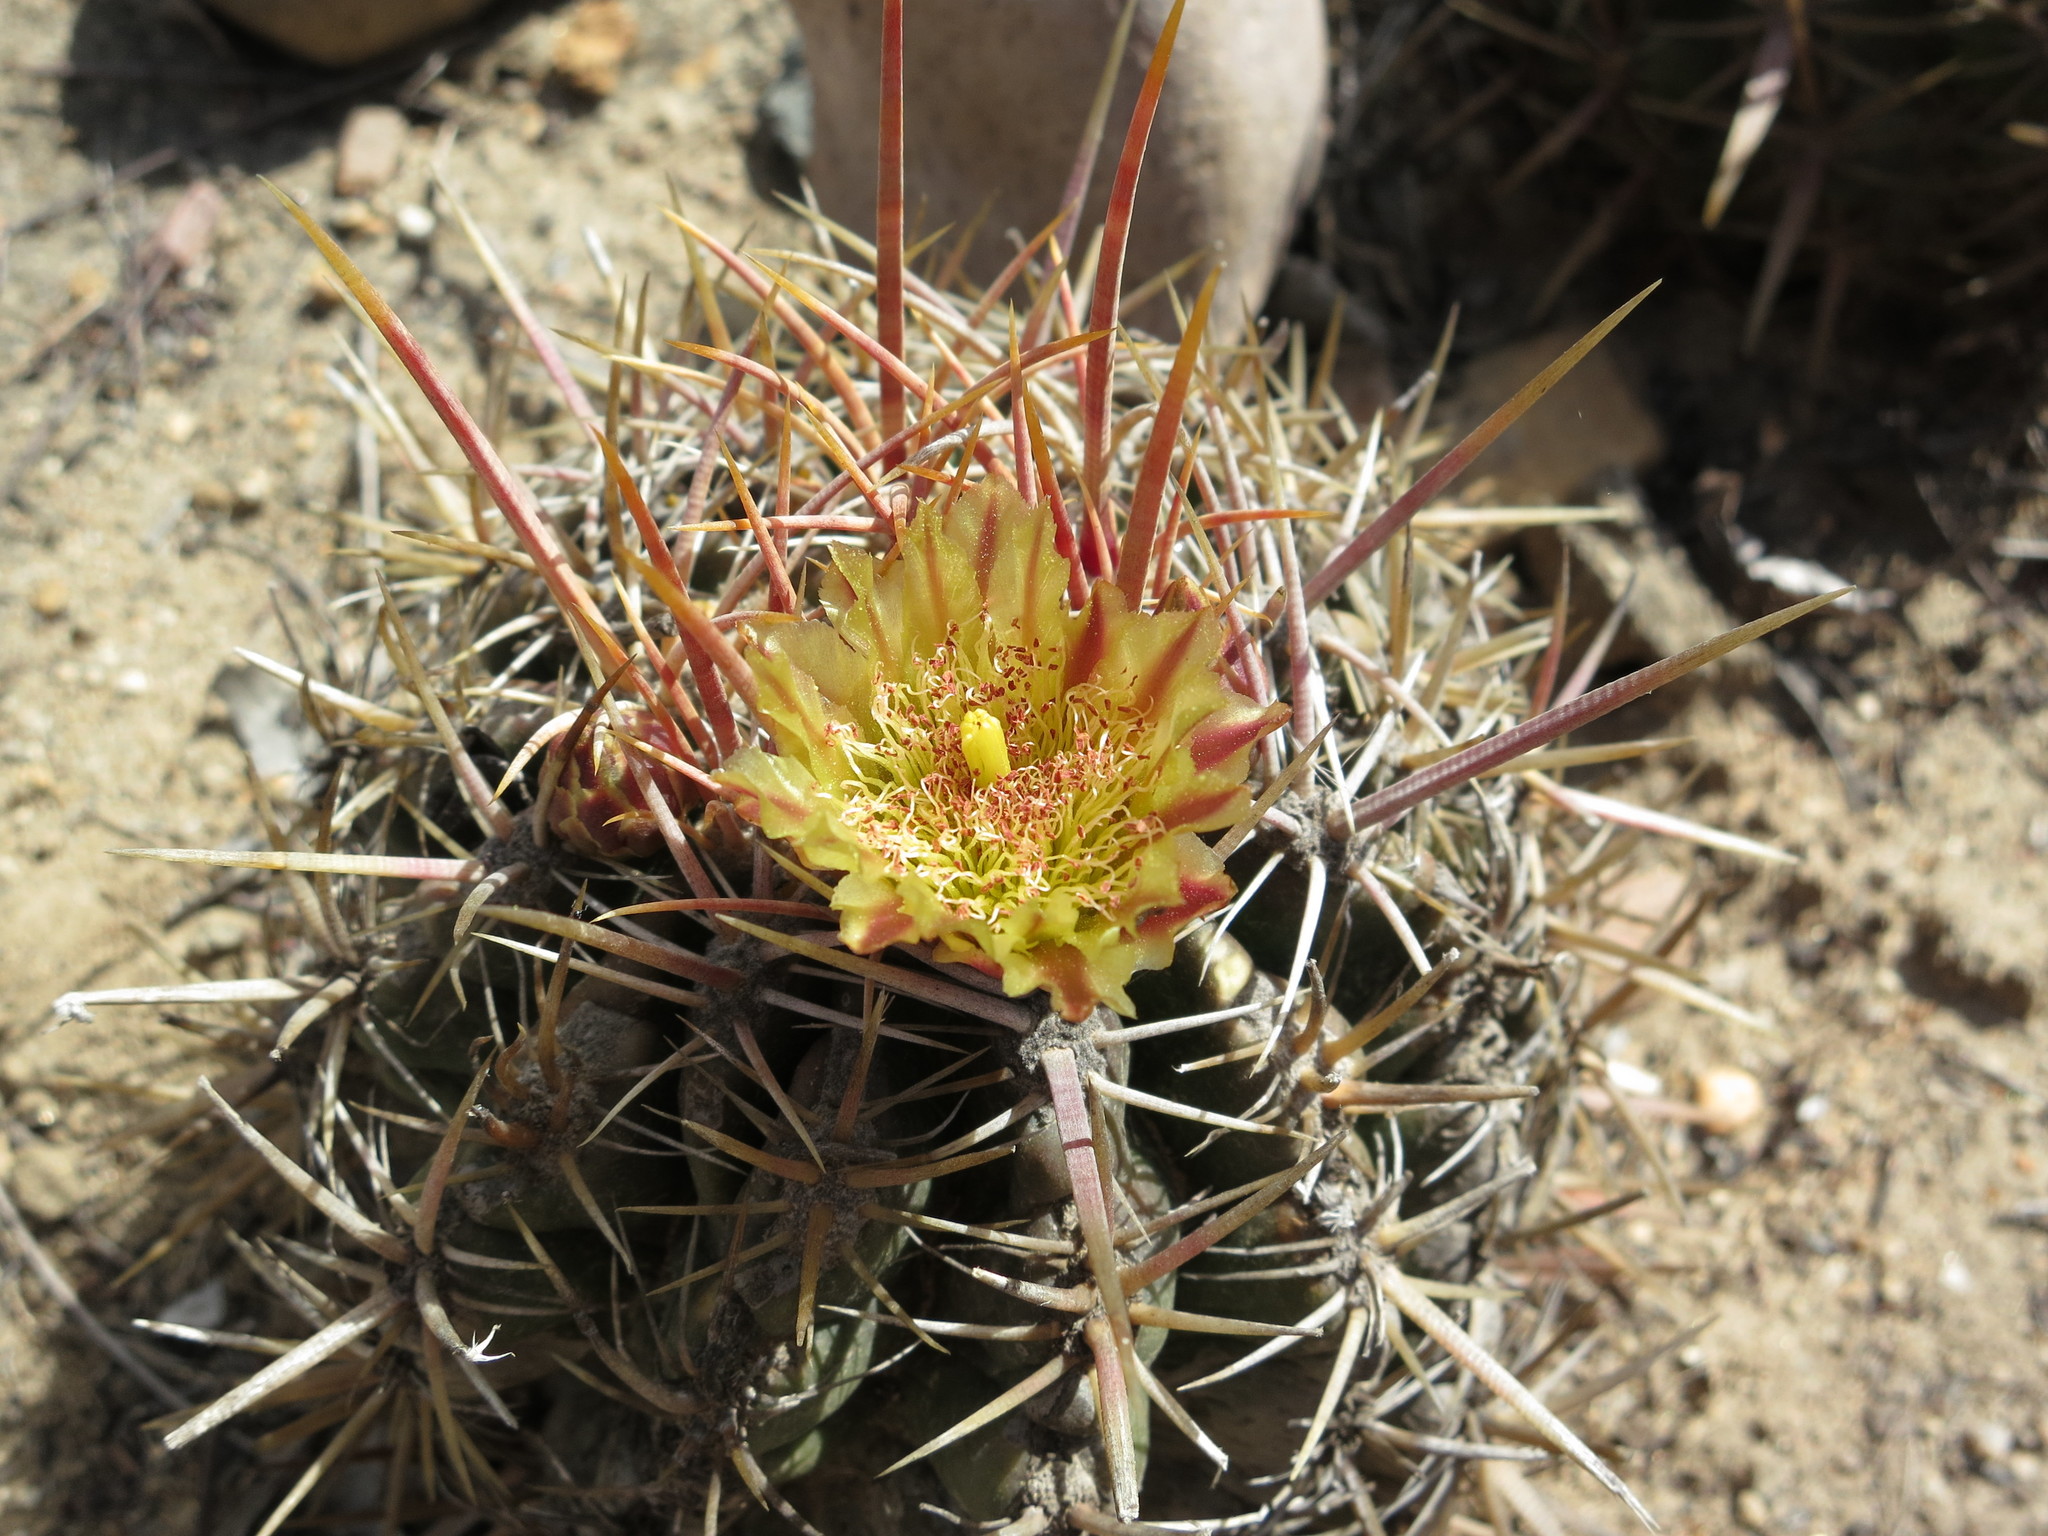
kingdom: Plantae
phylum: Tracheophyta
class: Magnoliopsida
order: Caryophyllales
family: Cactaceae
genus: Ferocactus
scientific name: Ferocactus viridescens
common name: San diego barrel cactus
